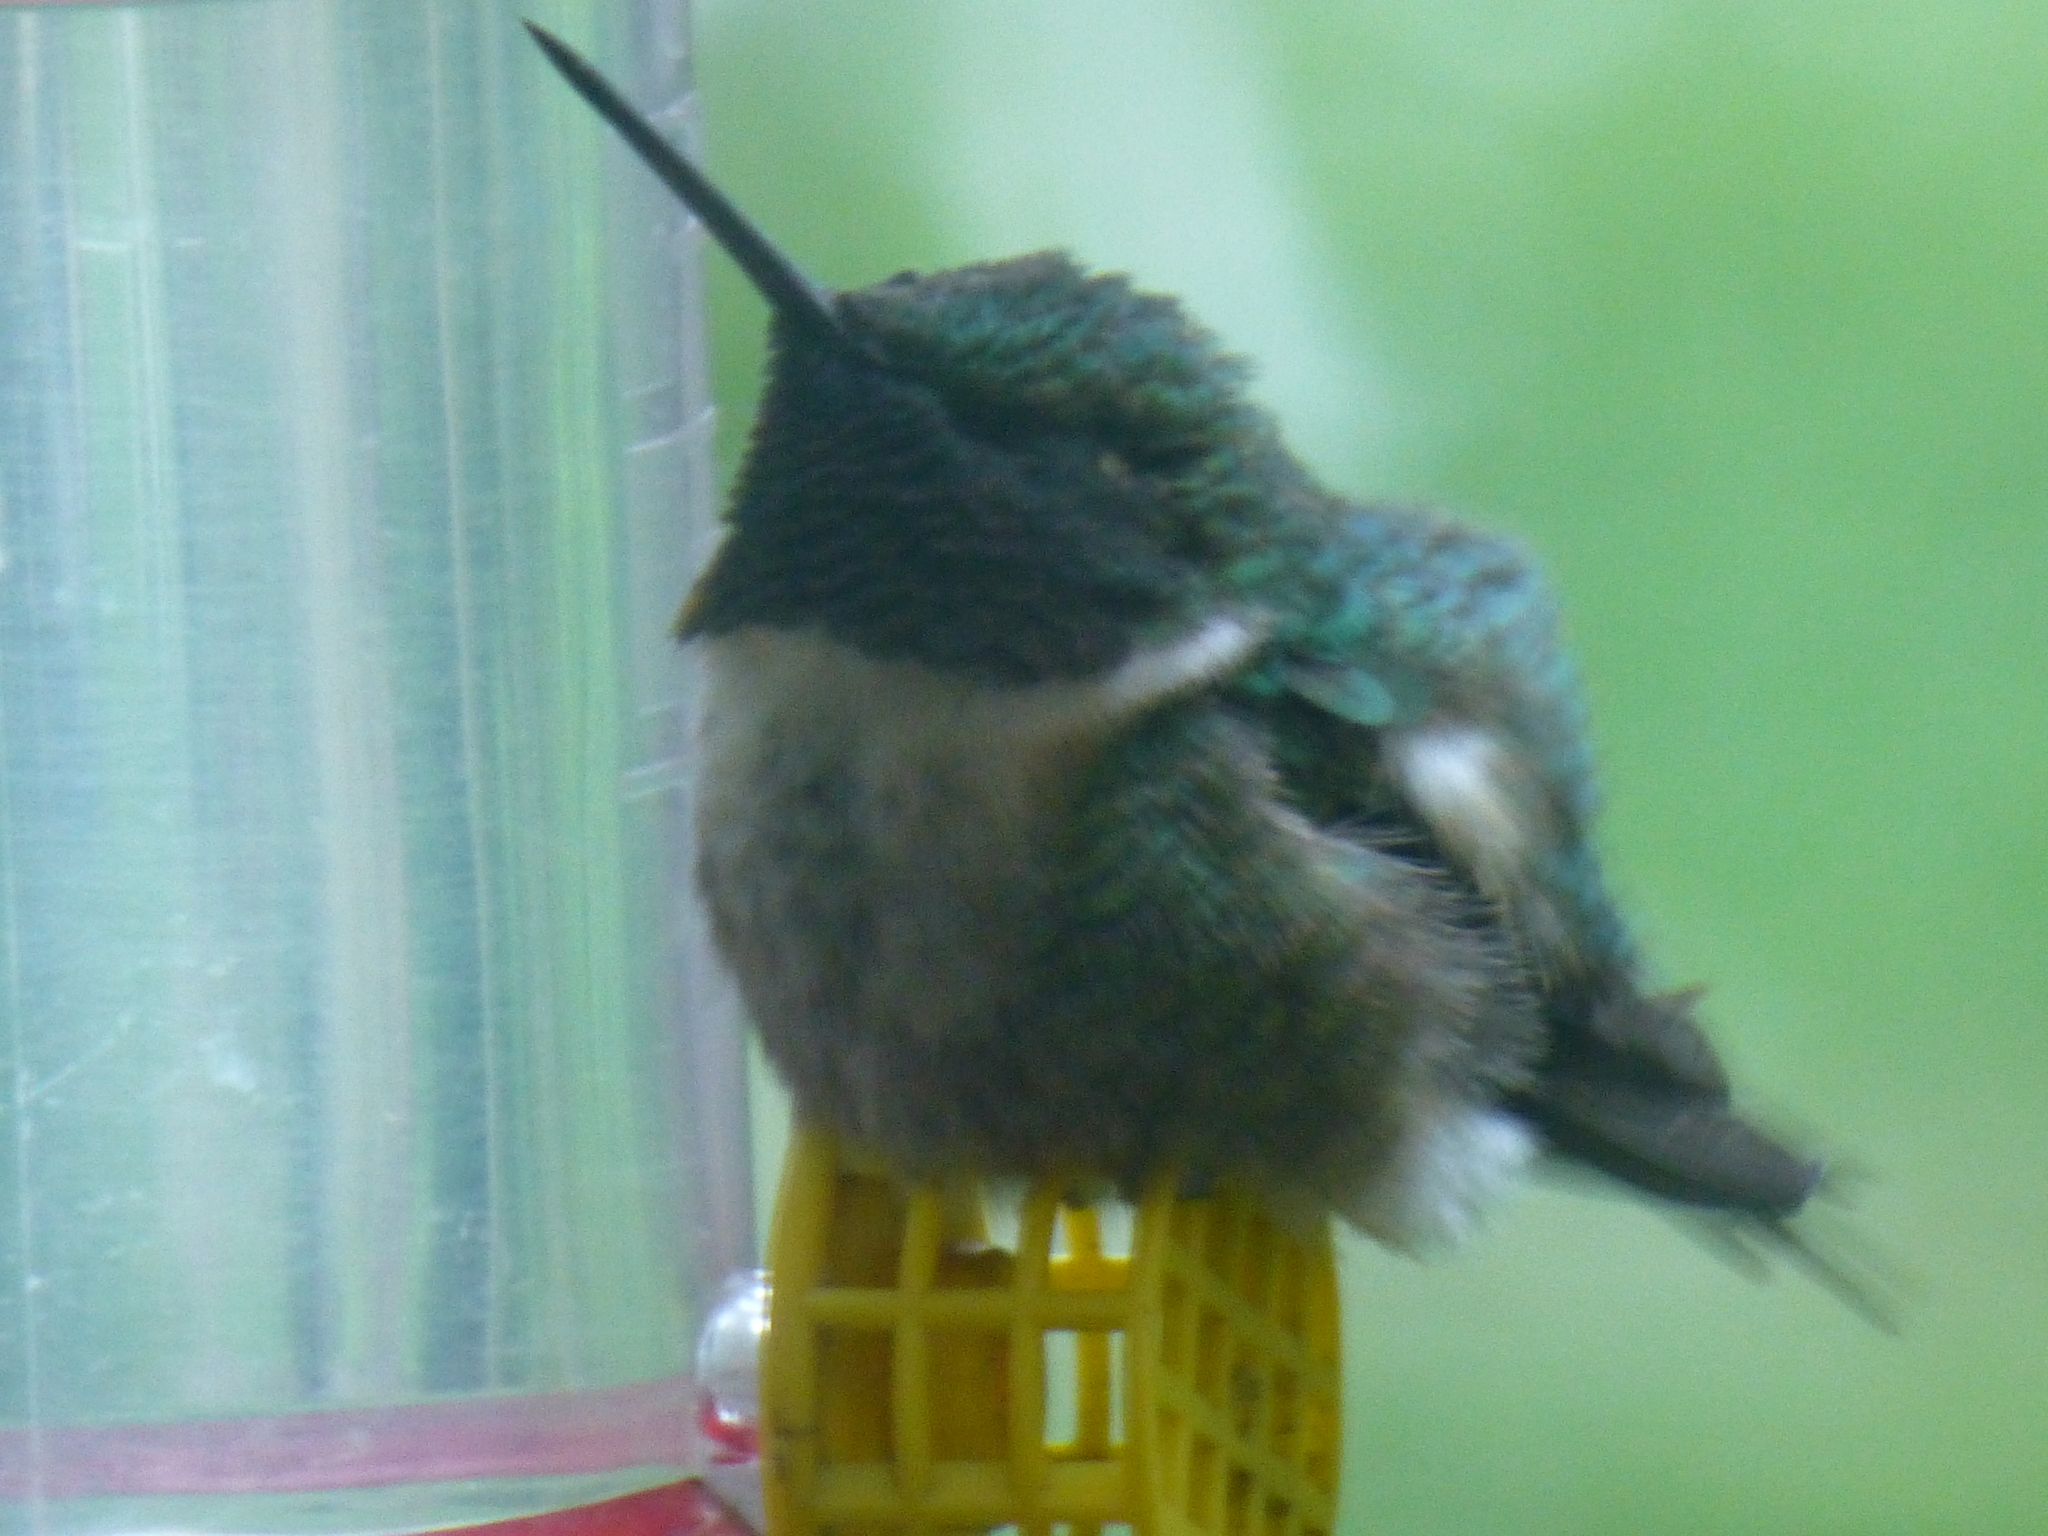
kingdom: Animalia
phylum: Chordata
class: Aves
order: Apodiformes
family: Trochilidae
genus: Archilochus
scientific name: Archilochus colubris
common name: Ruby-throated hummingbird
